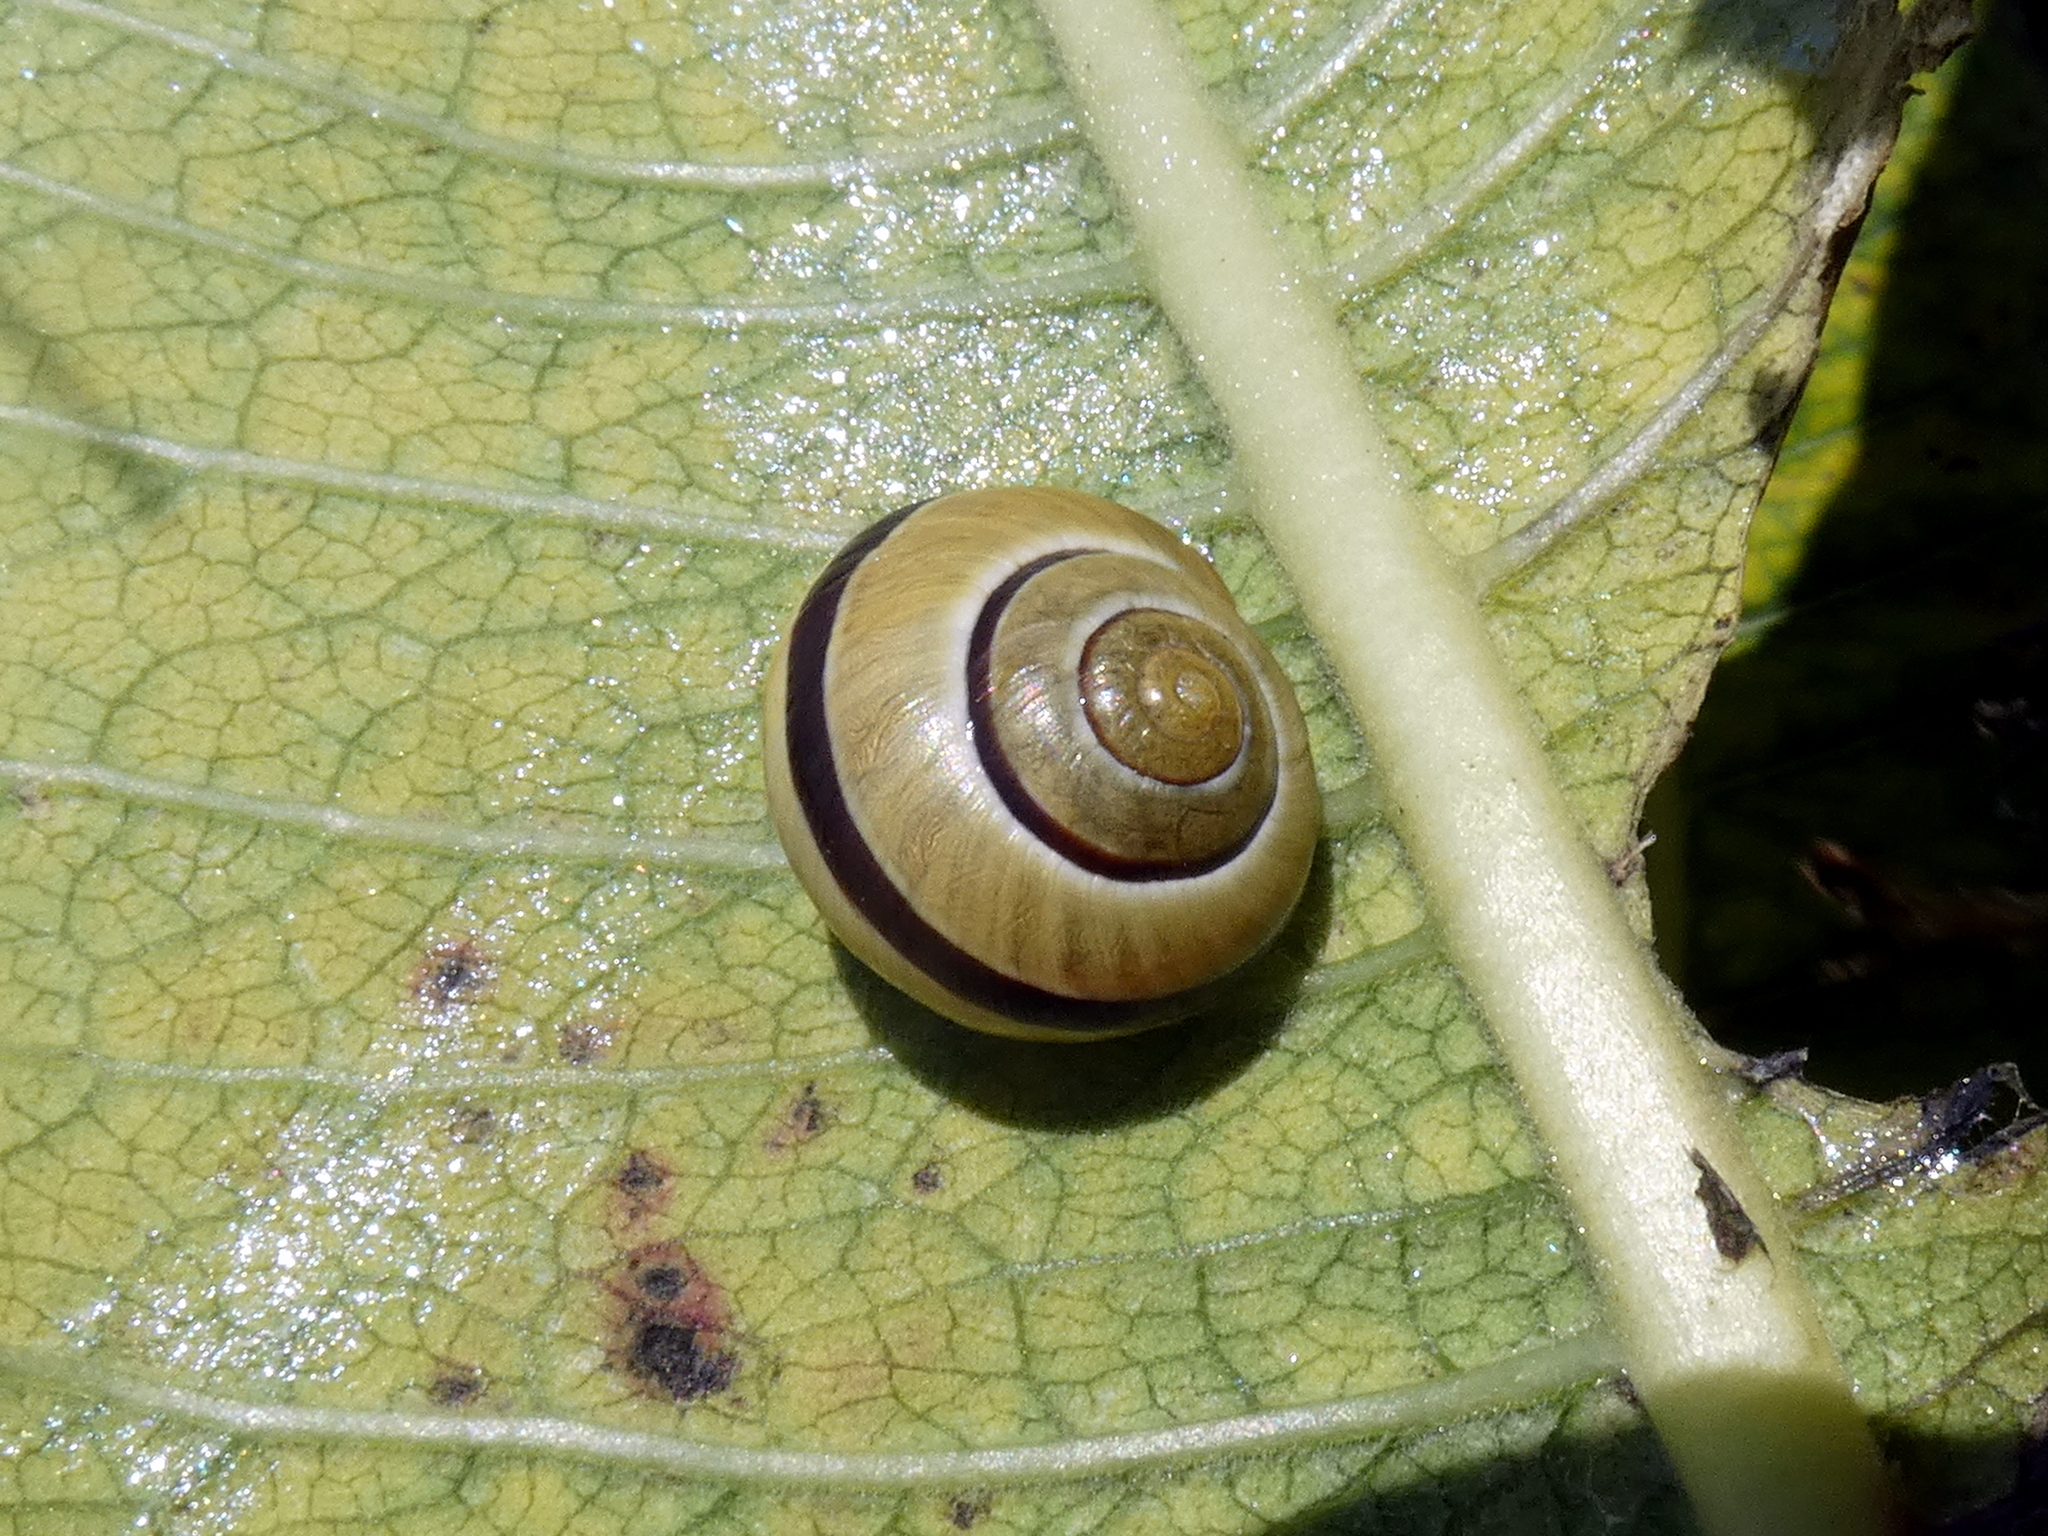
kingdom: Animalia
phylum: Mollusca
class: Gastropoda
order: Stylommatophora
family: Helicidae
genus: Cepaea
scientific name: Cepaea
